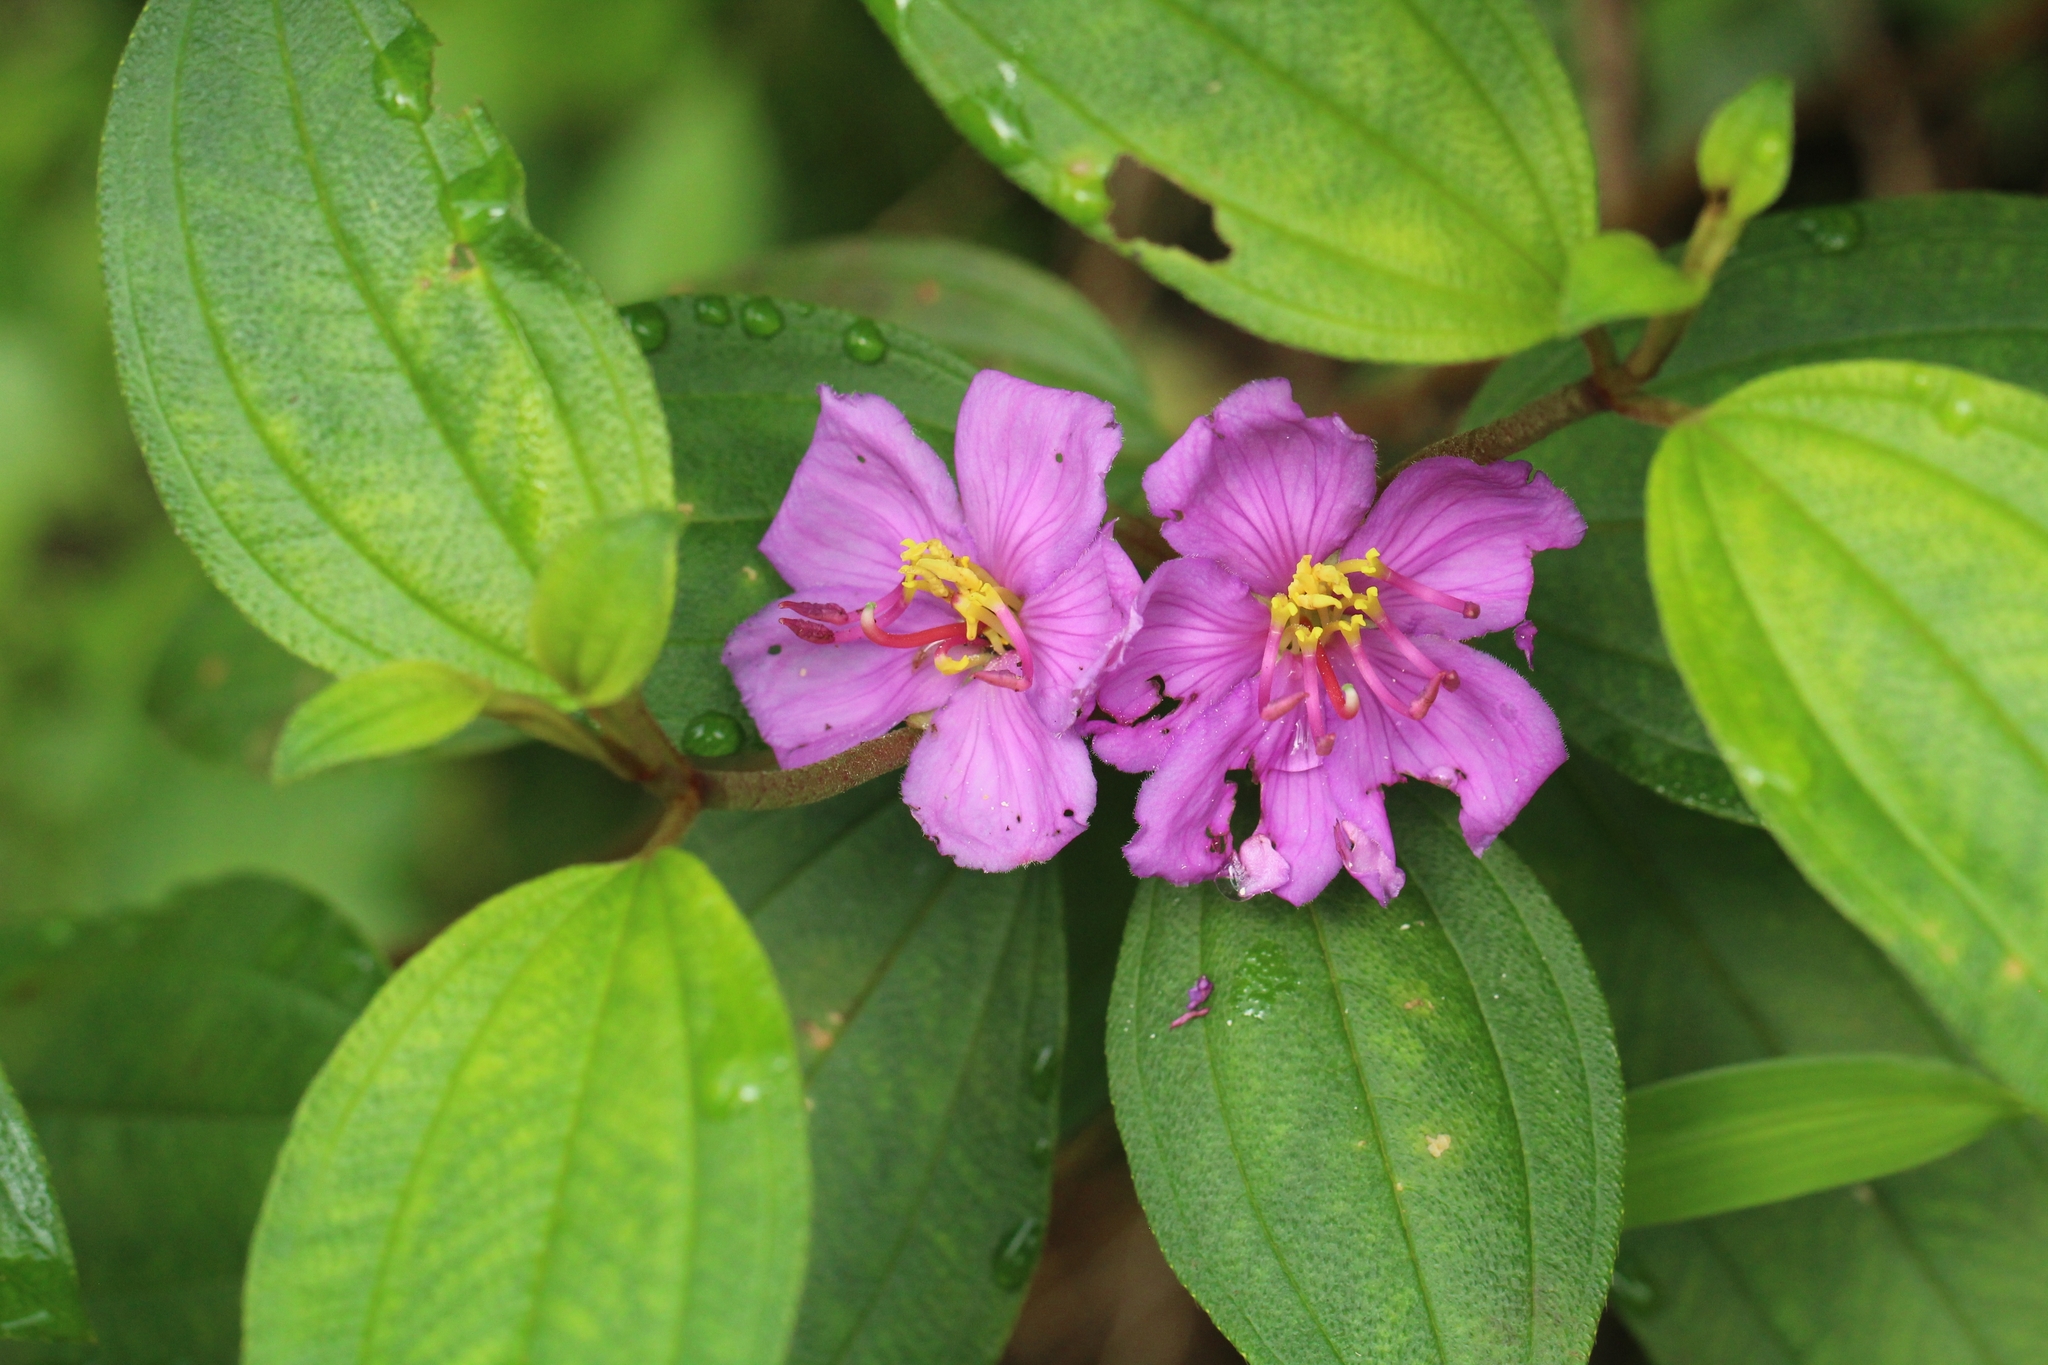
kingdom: Plantae
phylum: Tracheophyta
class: Magnoliopsida
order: Myrtales
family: Melastomataceae
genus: Melastoma
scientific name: Melastoma malabathricum
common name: Indian-rhododendron
